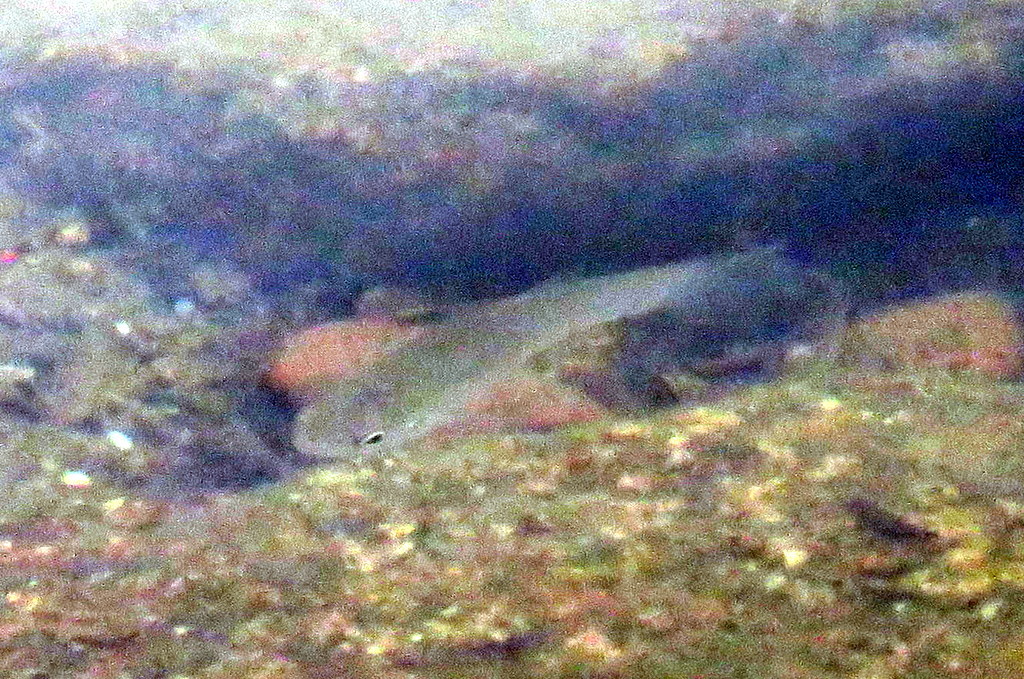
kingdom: Animalia
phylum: Chordata
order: Cyprinodontiformes
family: Anablepidae
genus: Jenynsia
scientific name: Jenynsia lineata
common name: Onesided livebearer
